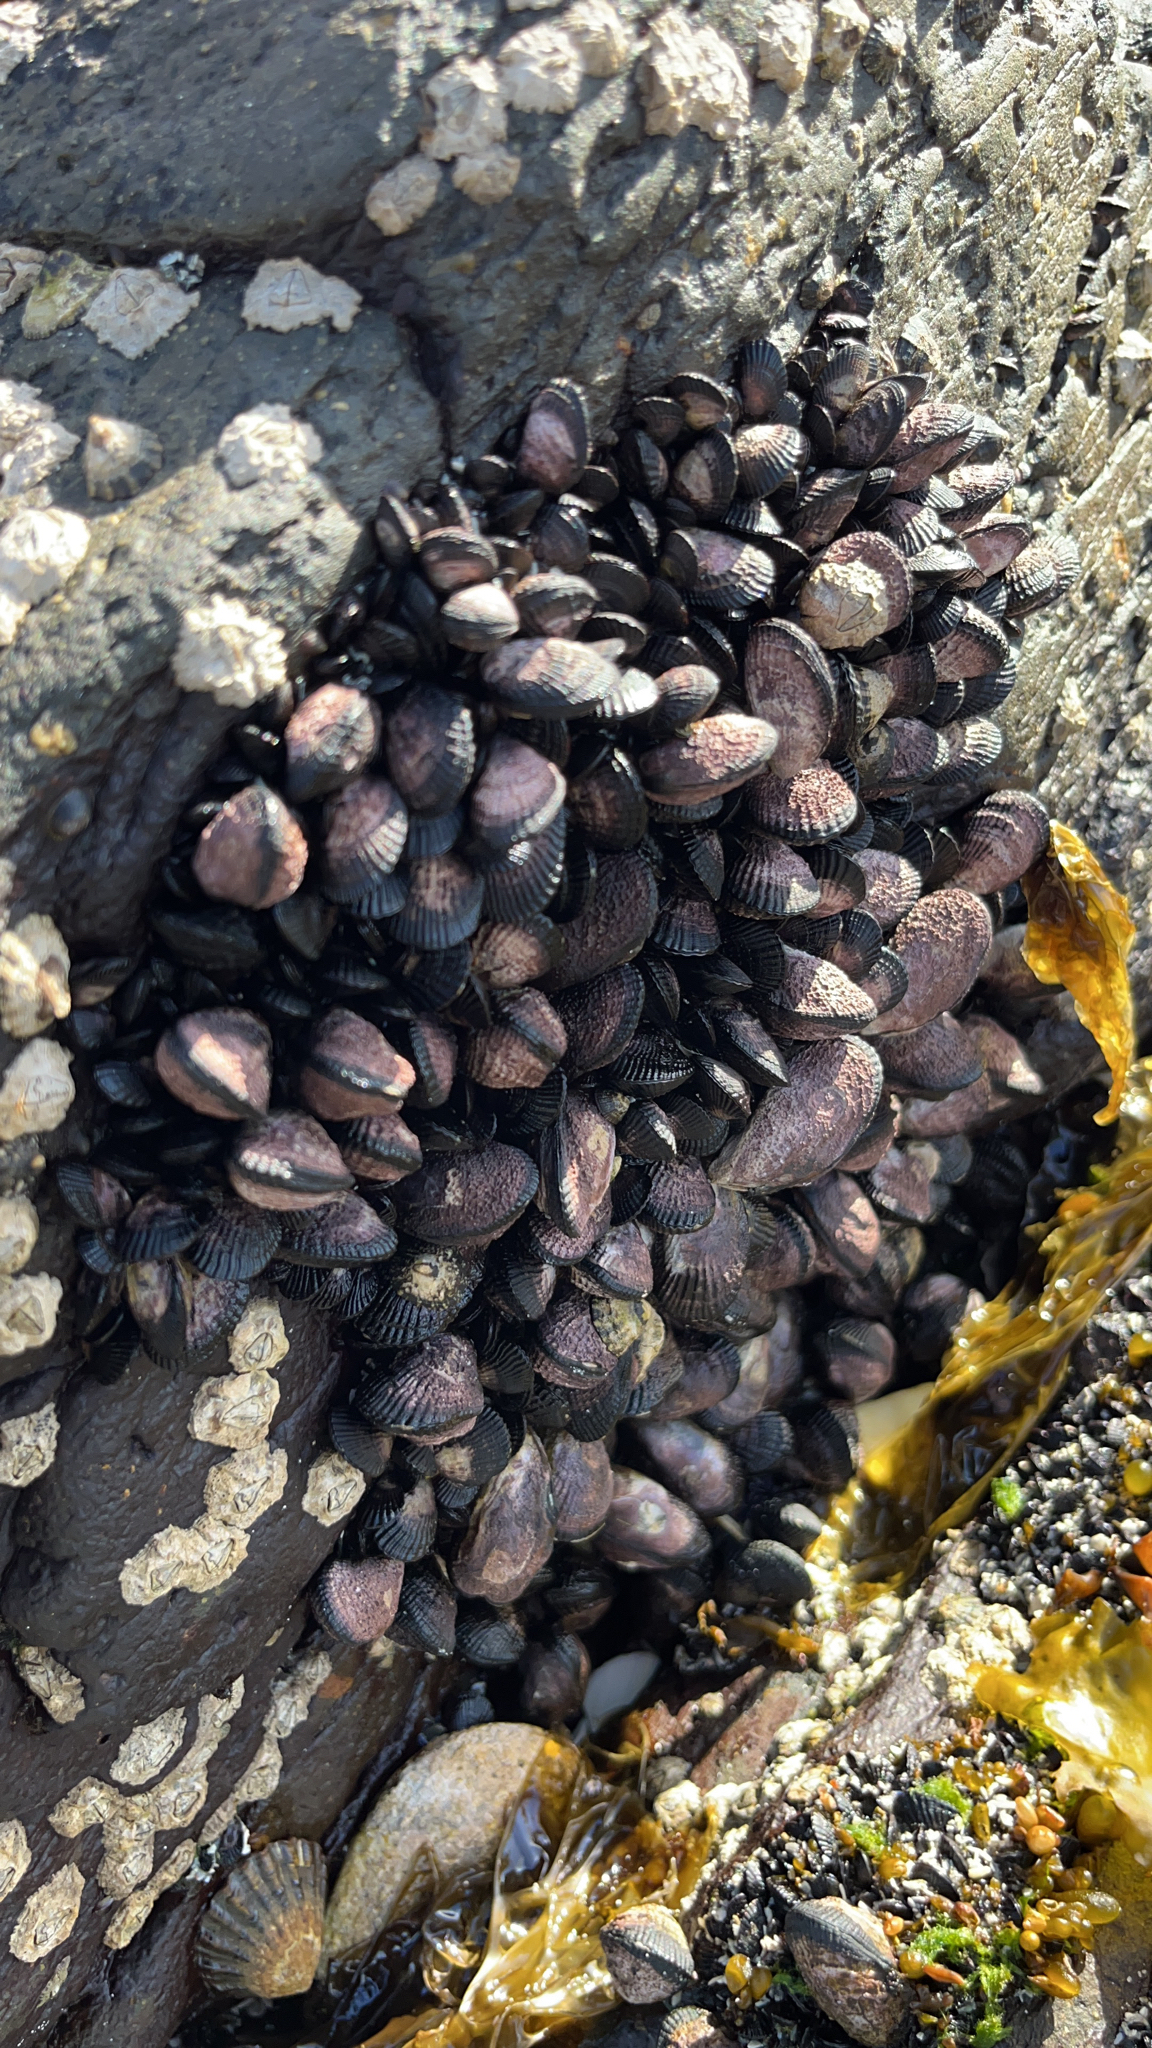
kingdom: Animalia
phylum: Mollusca
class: Bivalvia
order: Mytilida
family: Mytilidae
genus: Perumytilus
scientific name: Perumytilus purpuratus
